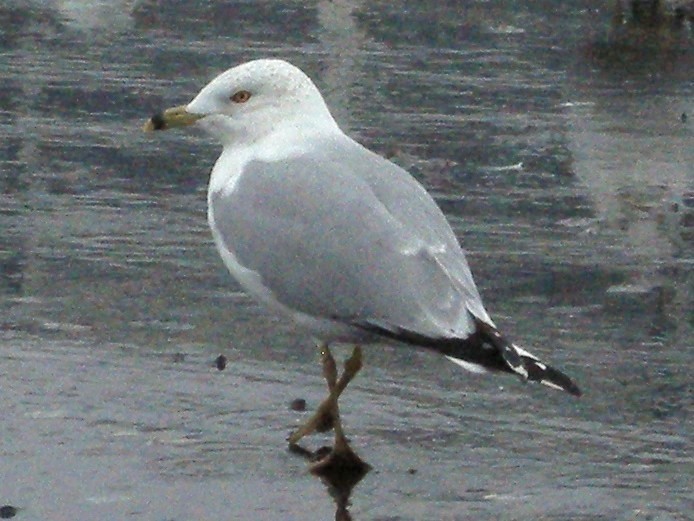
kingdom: Animalia
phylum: Chordata
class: Aves
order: Charadriiformes
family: Laridae
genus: Larus
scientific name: Larus delawarensis
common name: Ring-billed gull
